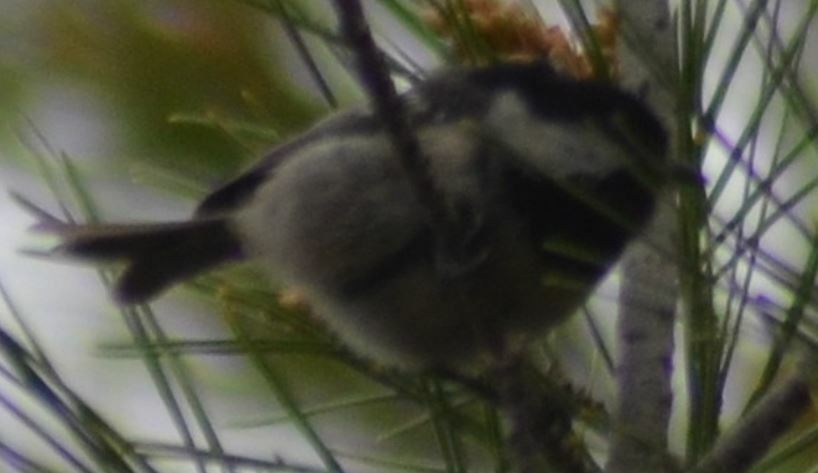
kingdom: Animalia
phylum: Chordata
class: Aves
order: Passeriformes
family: Paridae
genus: Periparus
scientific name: Periparus ater
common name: Coal tit
